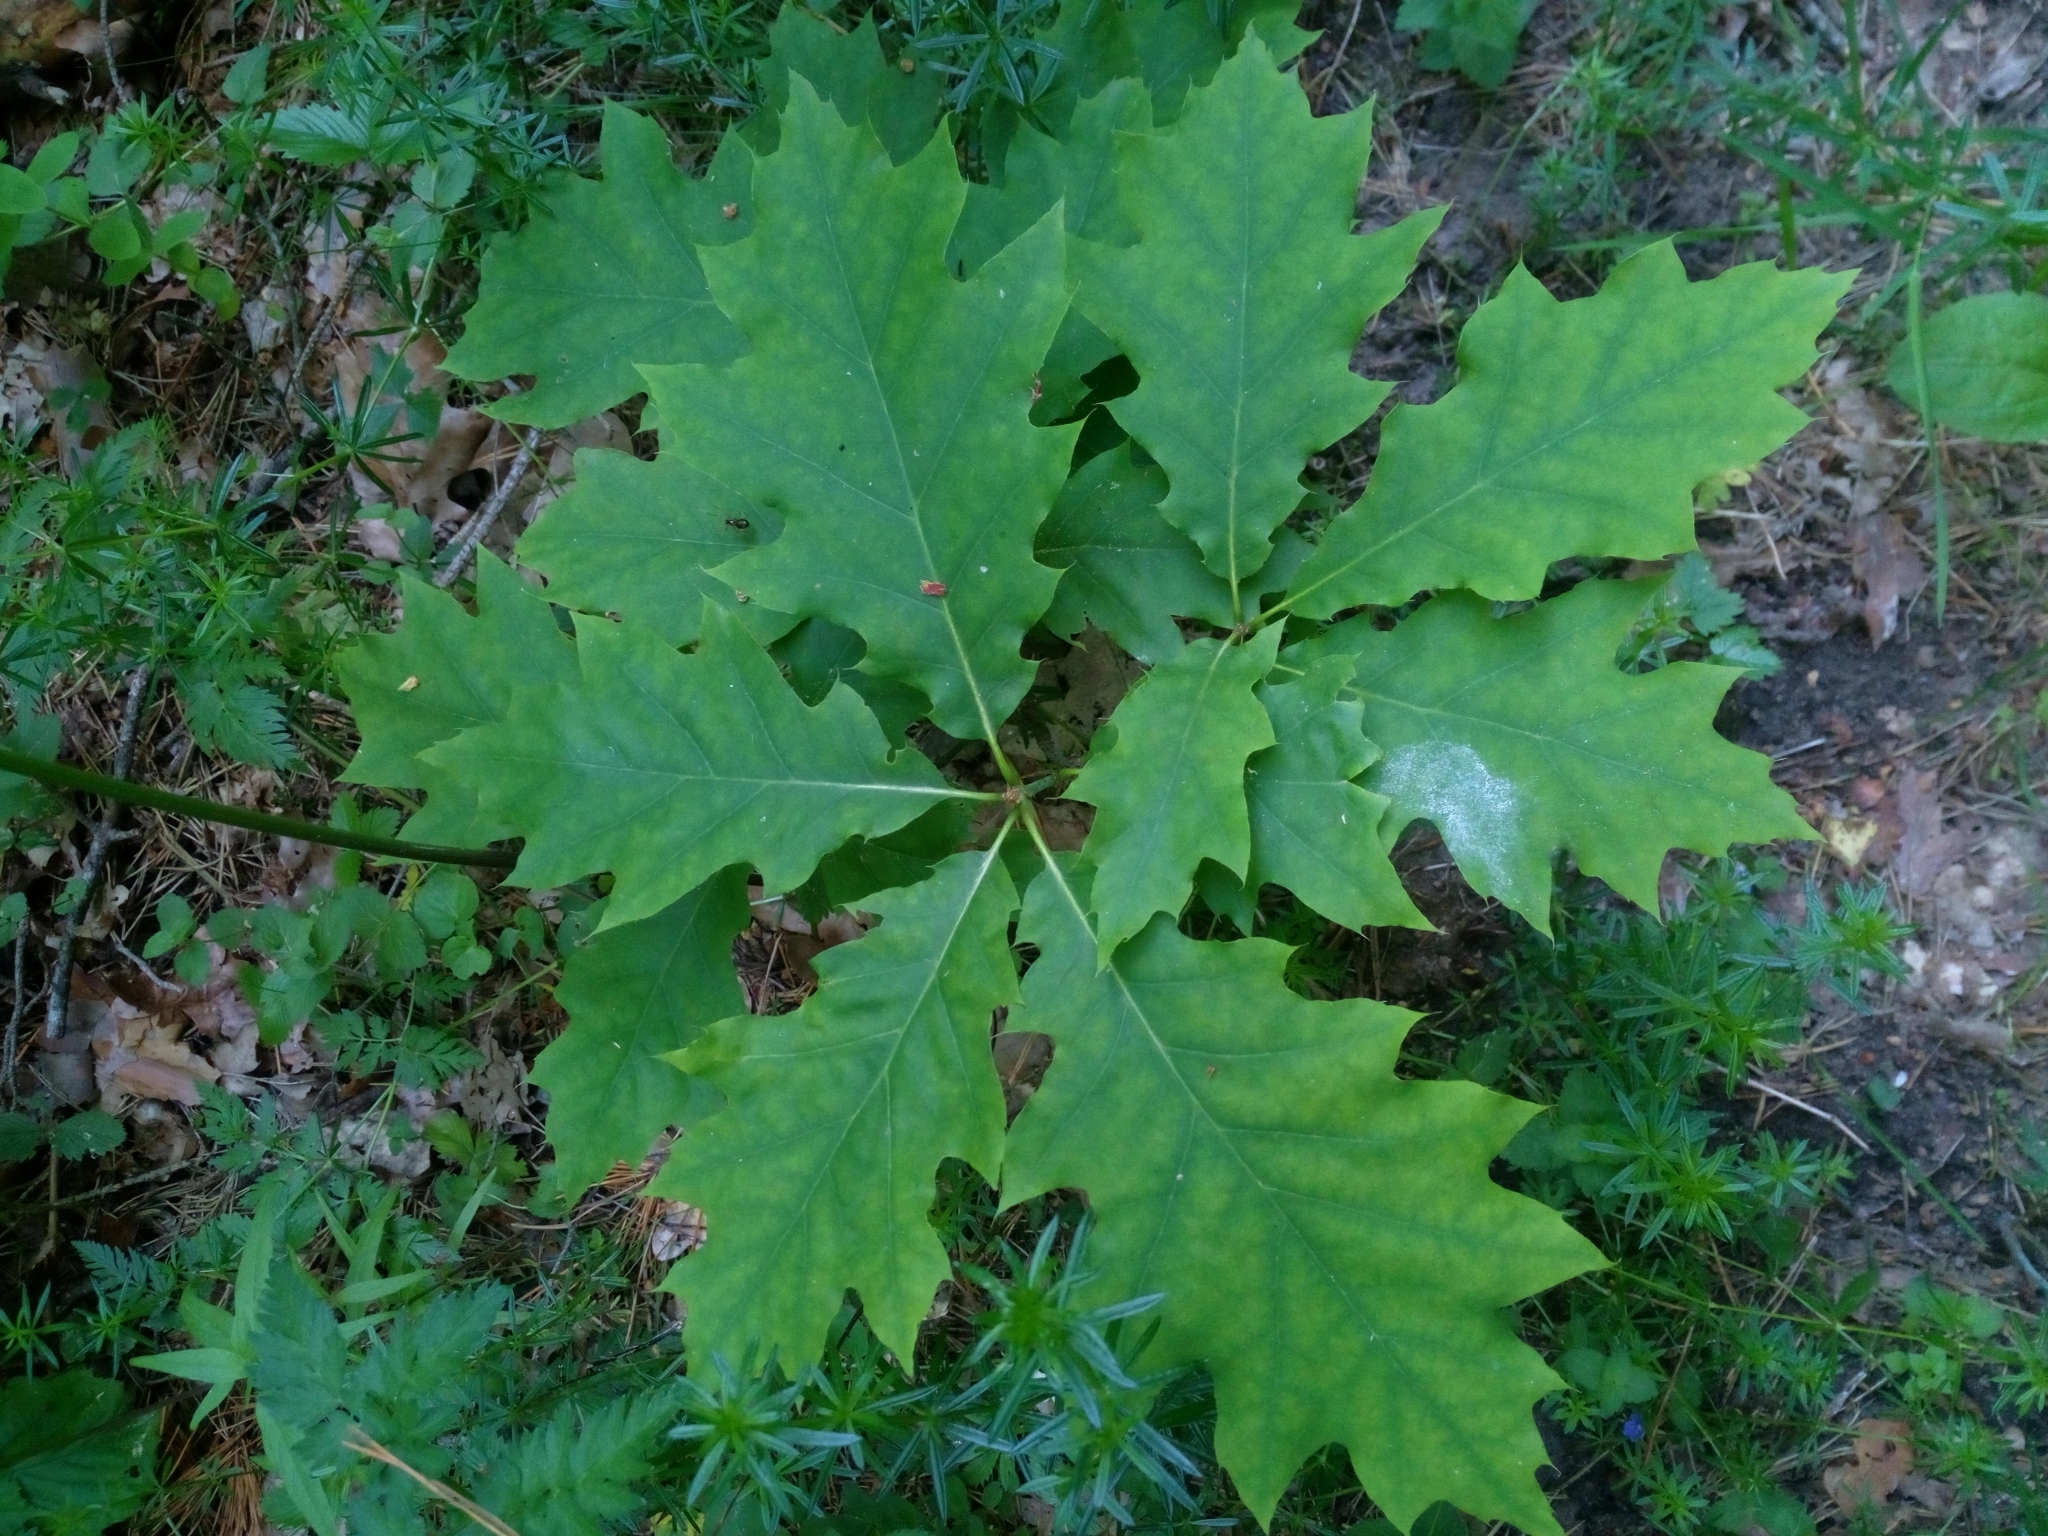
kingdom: Plantae
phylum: Tracheophyta
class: Magnoliopsida
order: Fagales
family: Fagaceae
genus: Quercus
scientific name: Quercus rubra
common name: Red oak
